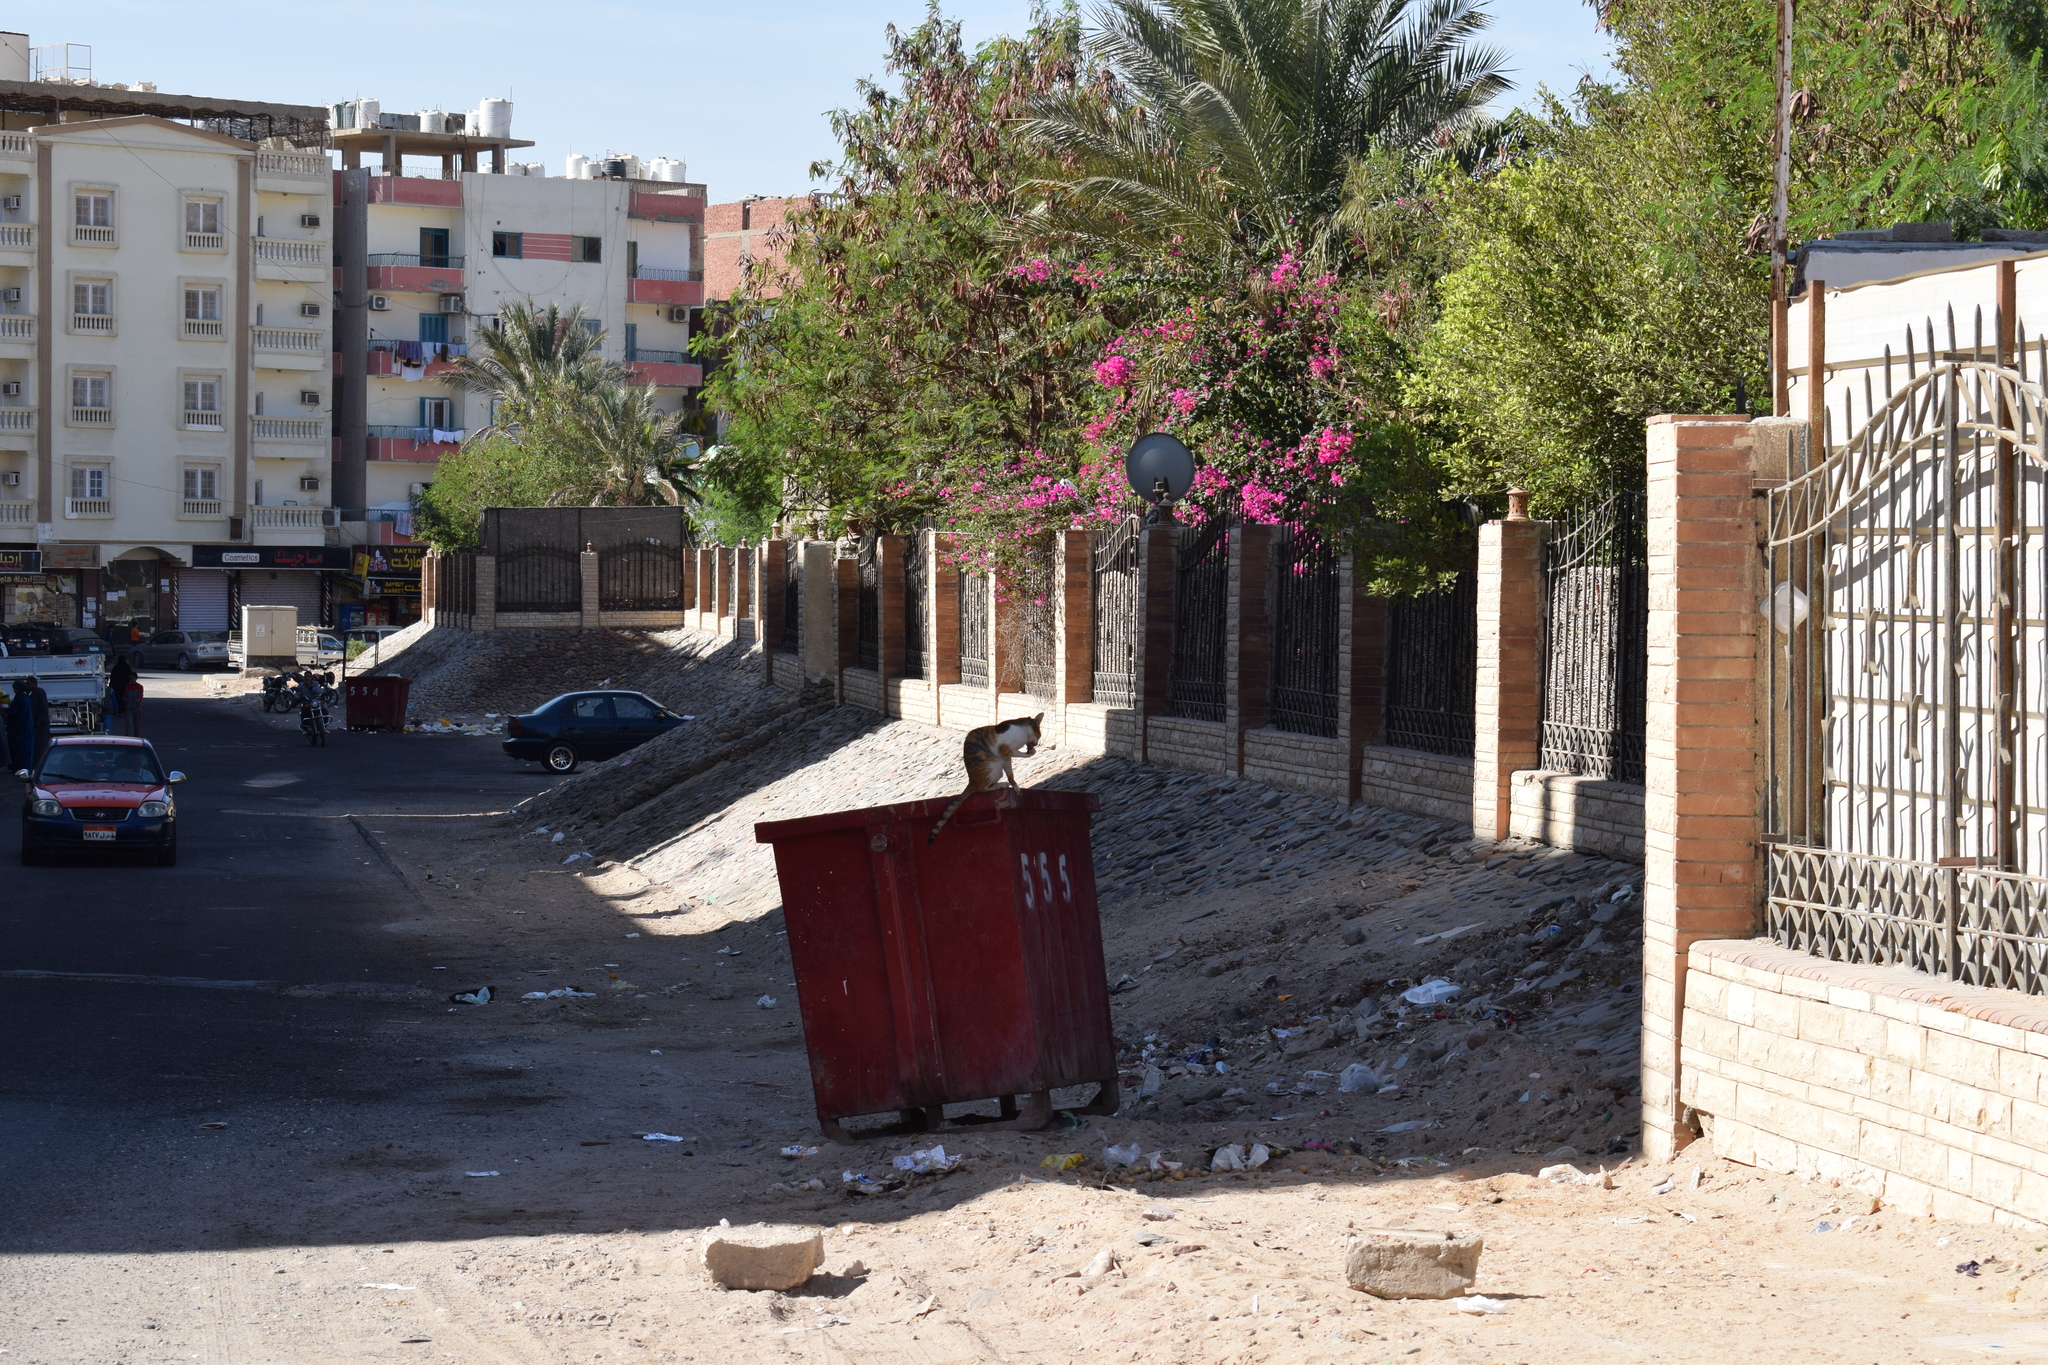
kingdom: Animalia
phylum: Chordata
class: Mammalia
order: Carnivora
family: Felidae
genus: Felis
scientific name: Felis catus
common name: Domestic cat
